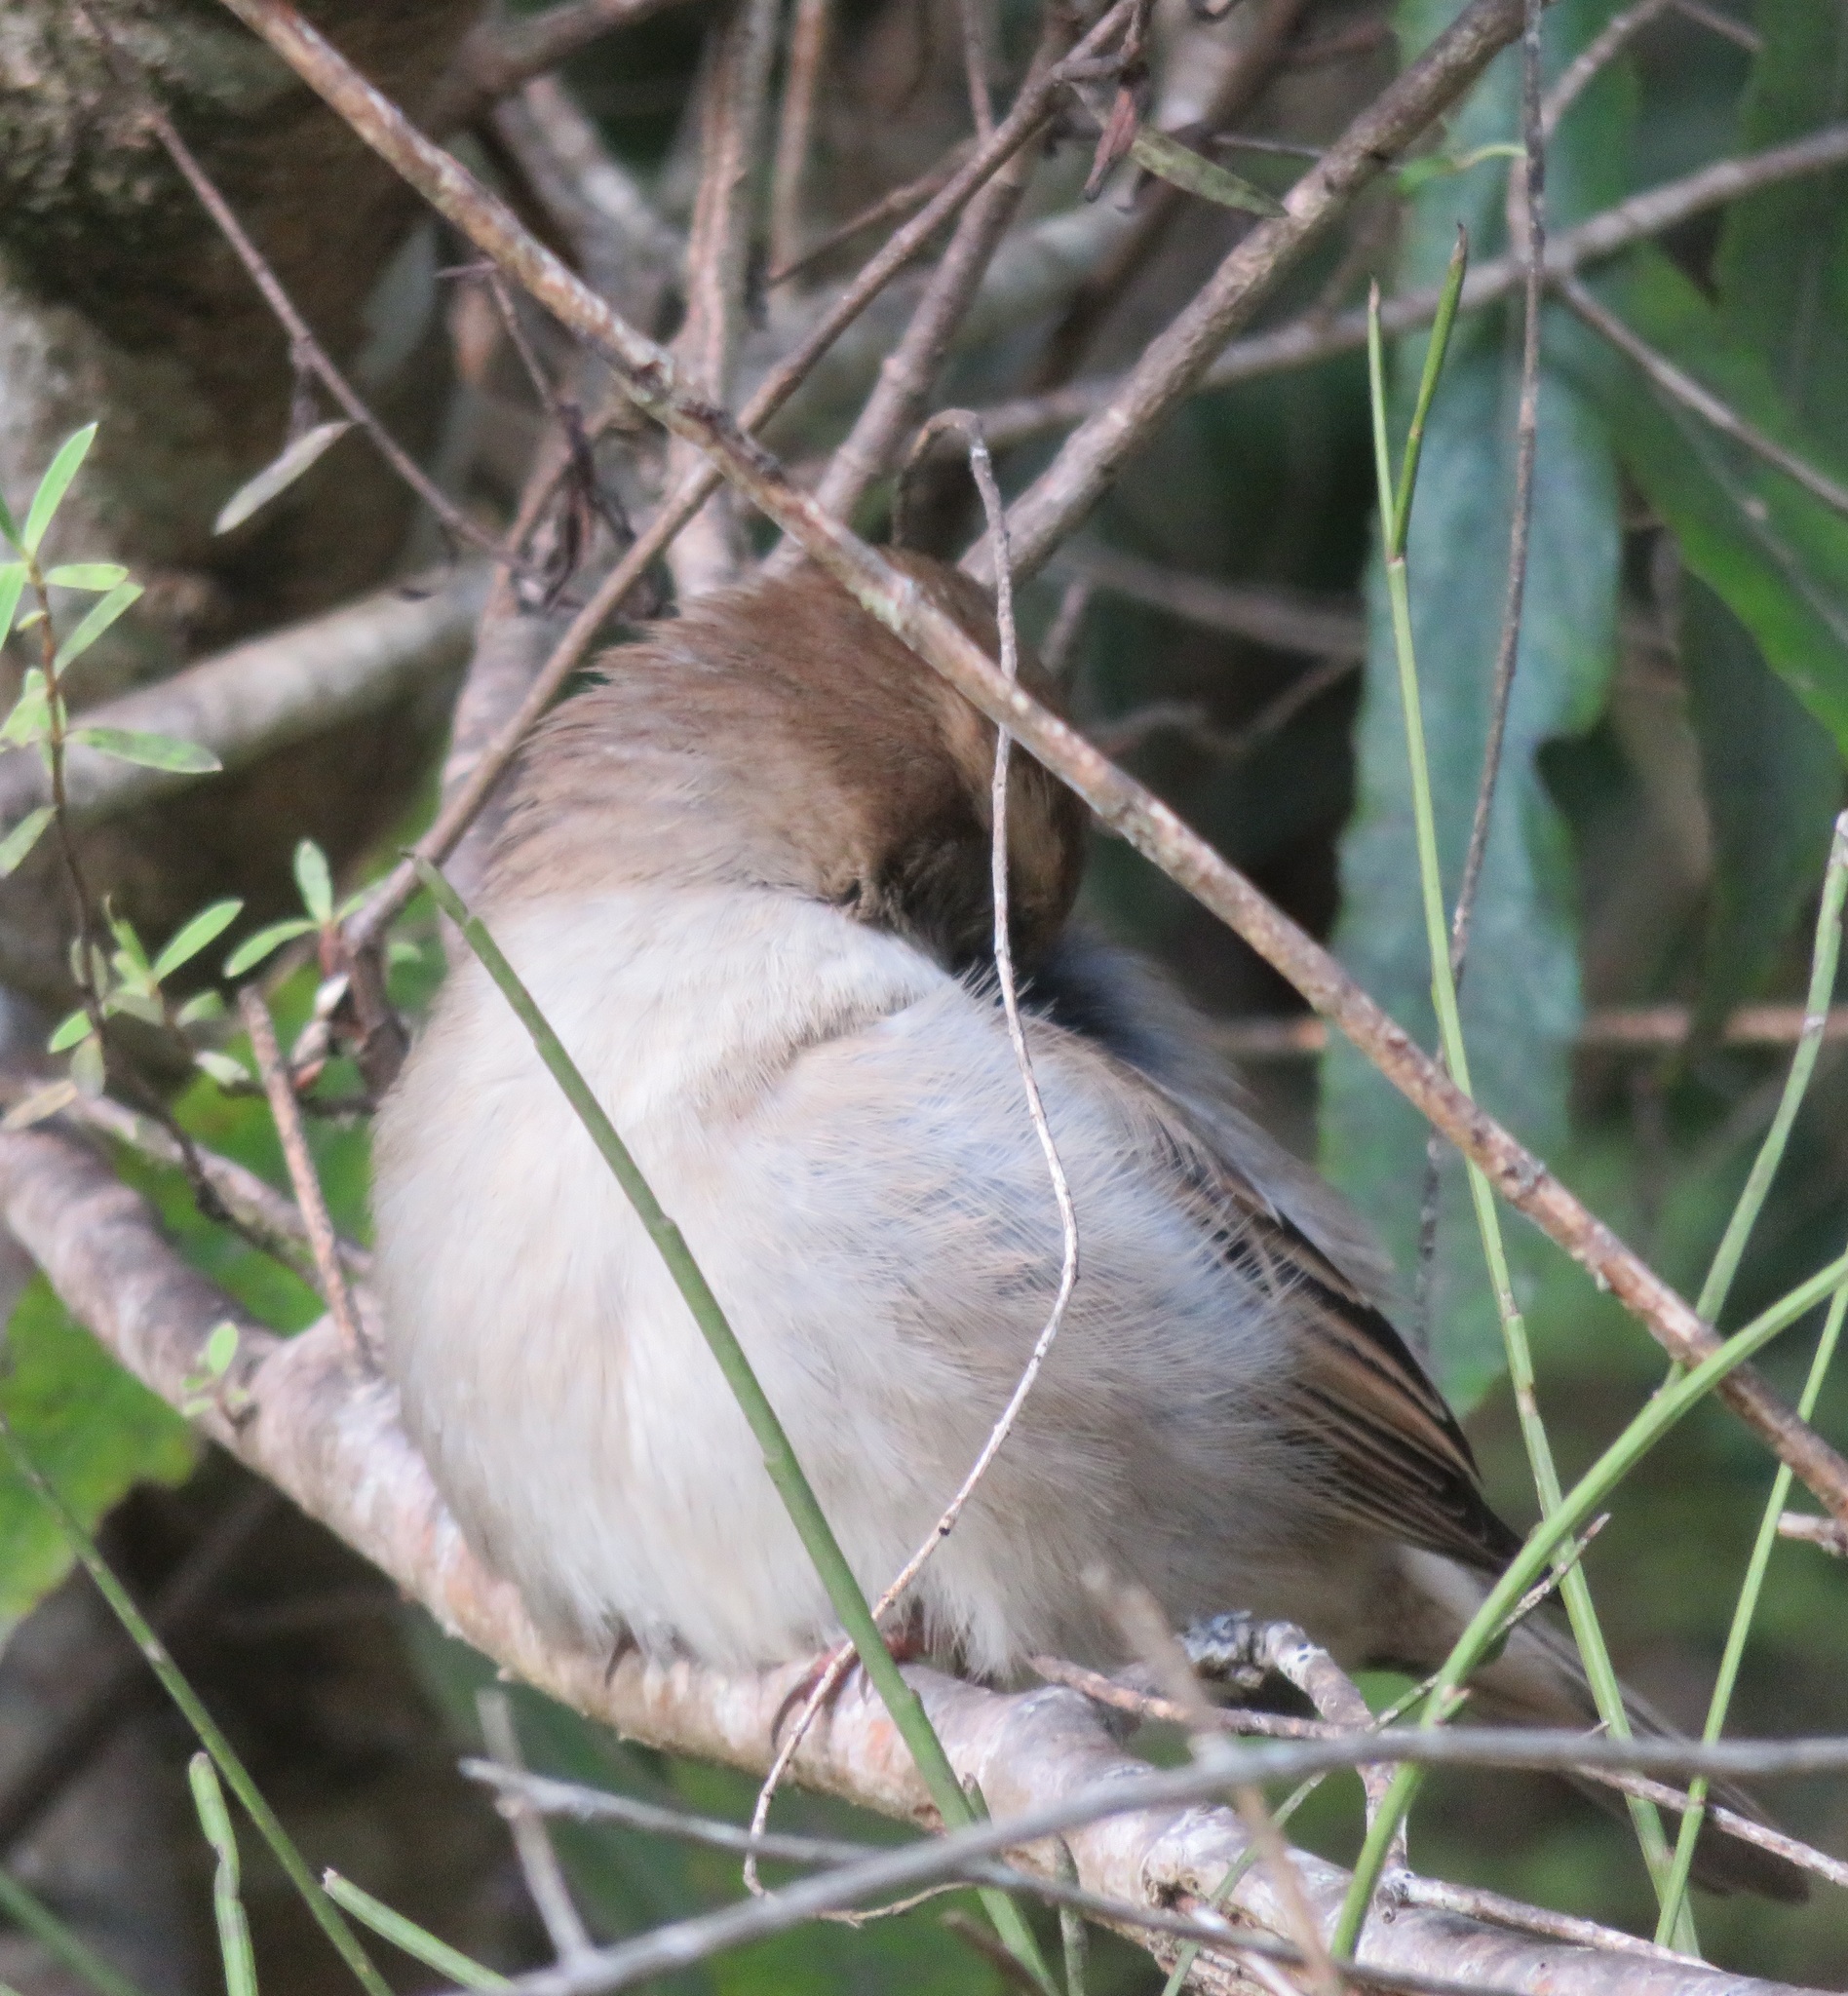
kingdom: Animalia
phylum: Chordata
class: Aves
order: Passeriformes
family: Passeridae
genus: Passer
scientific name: Passer domesticus
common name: House sparrow
